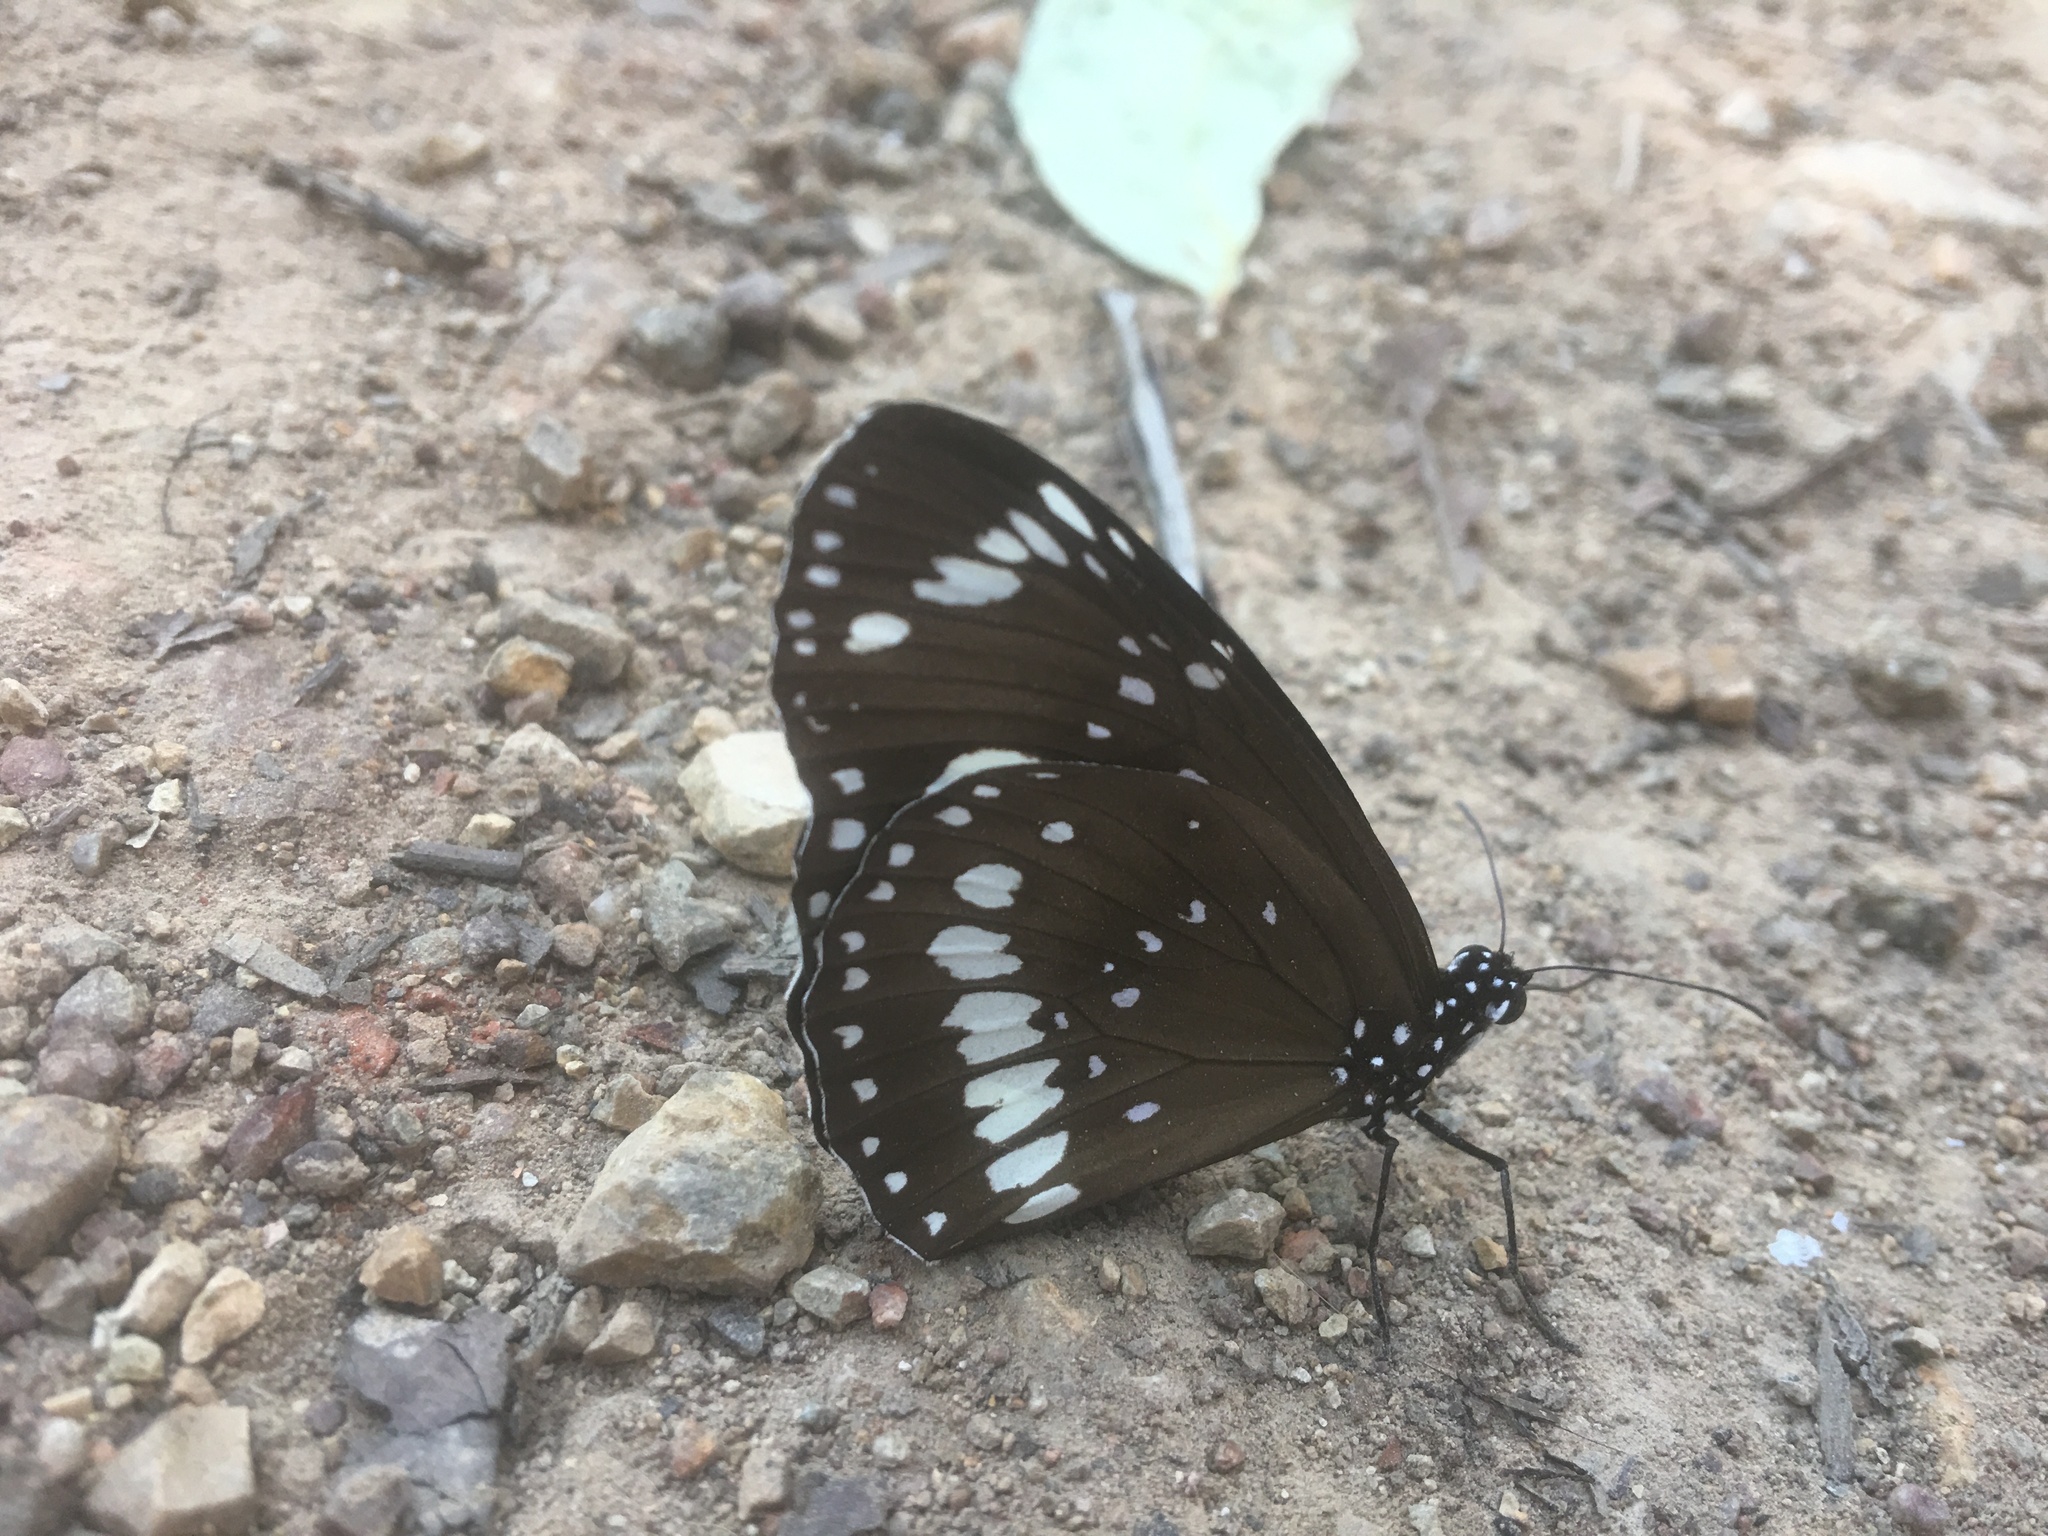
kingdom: Animalia
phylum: Arthropoda
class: Insecta
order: Lepidoptera
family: Nymphalidae
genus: Euploea
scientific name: Euploea core
